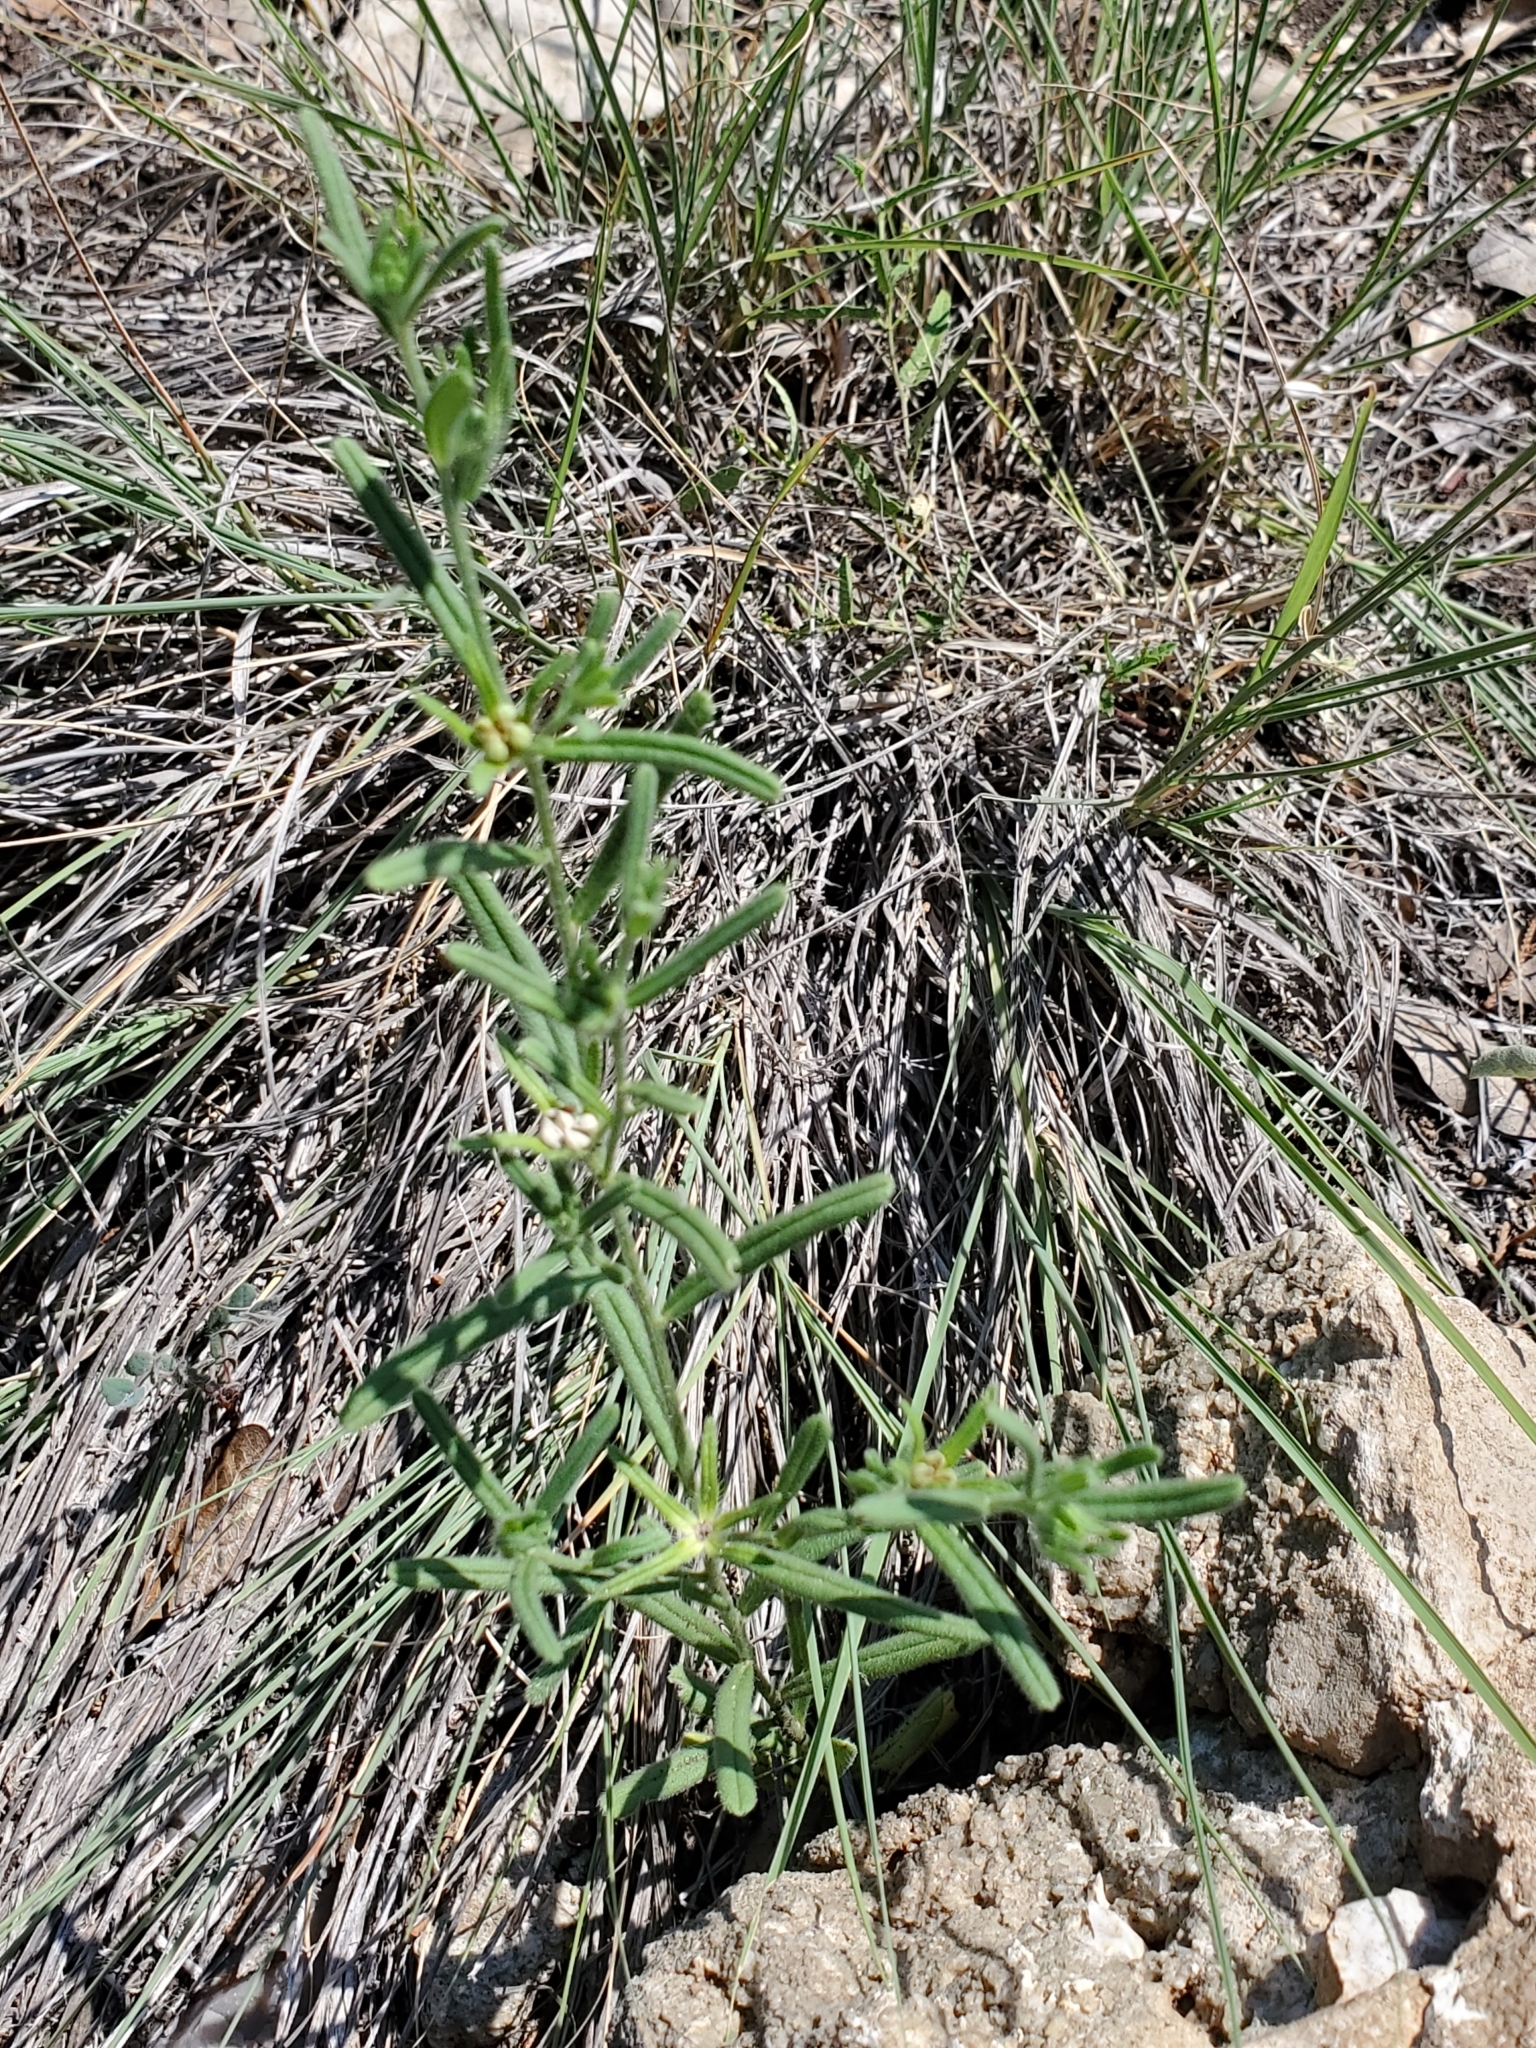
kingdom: Plantae
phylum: Tracheophyta
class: Magnoliopsida
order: Boraginales
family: Boraginaceae
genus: Lithospermum
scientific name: Lithospermum mirabile
